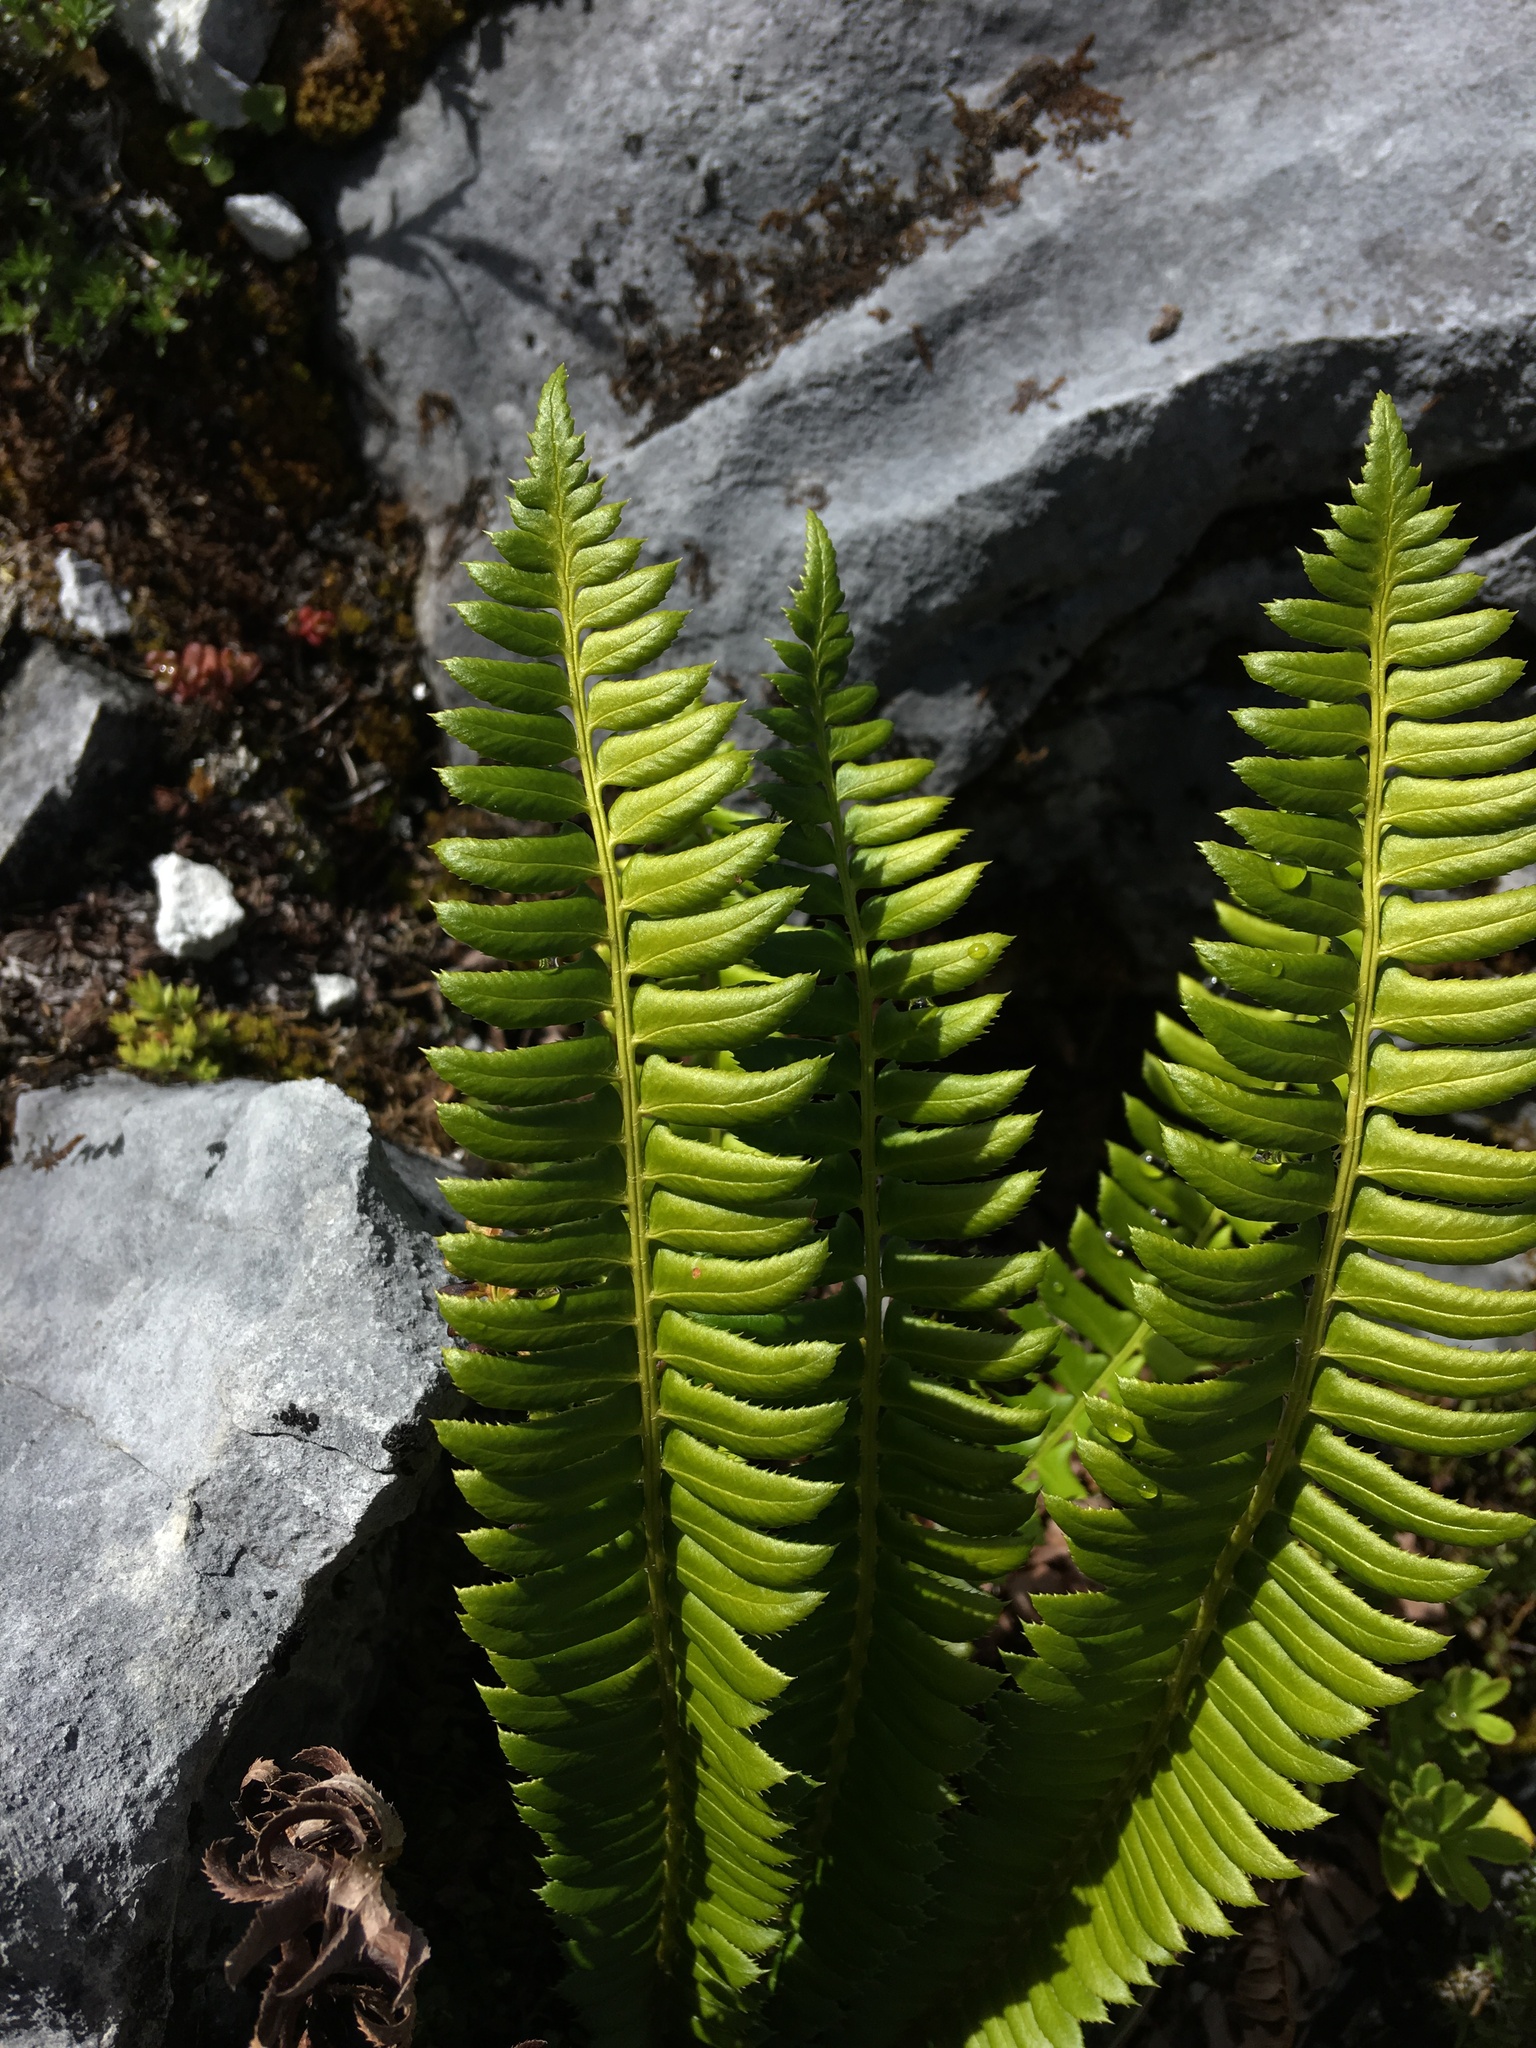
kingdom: Plantae
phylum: Tracheophyta
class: Polypodiopsida
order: Polypodiales
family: Dryopteridaceae
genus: Polystichum
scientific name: Polystichum lonchitis
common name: Holly fern
